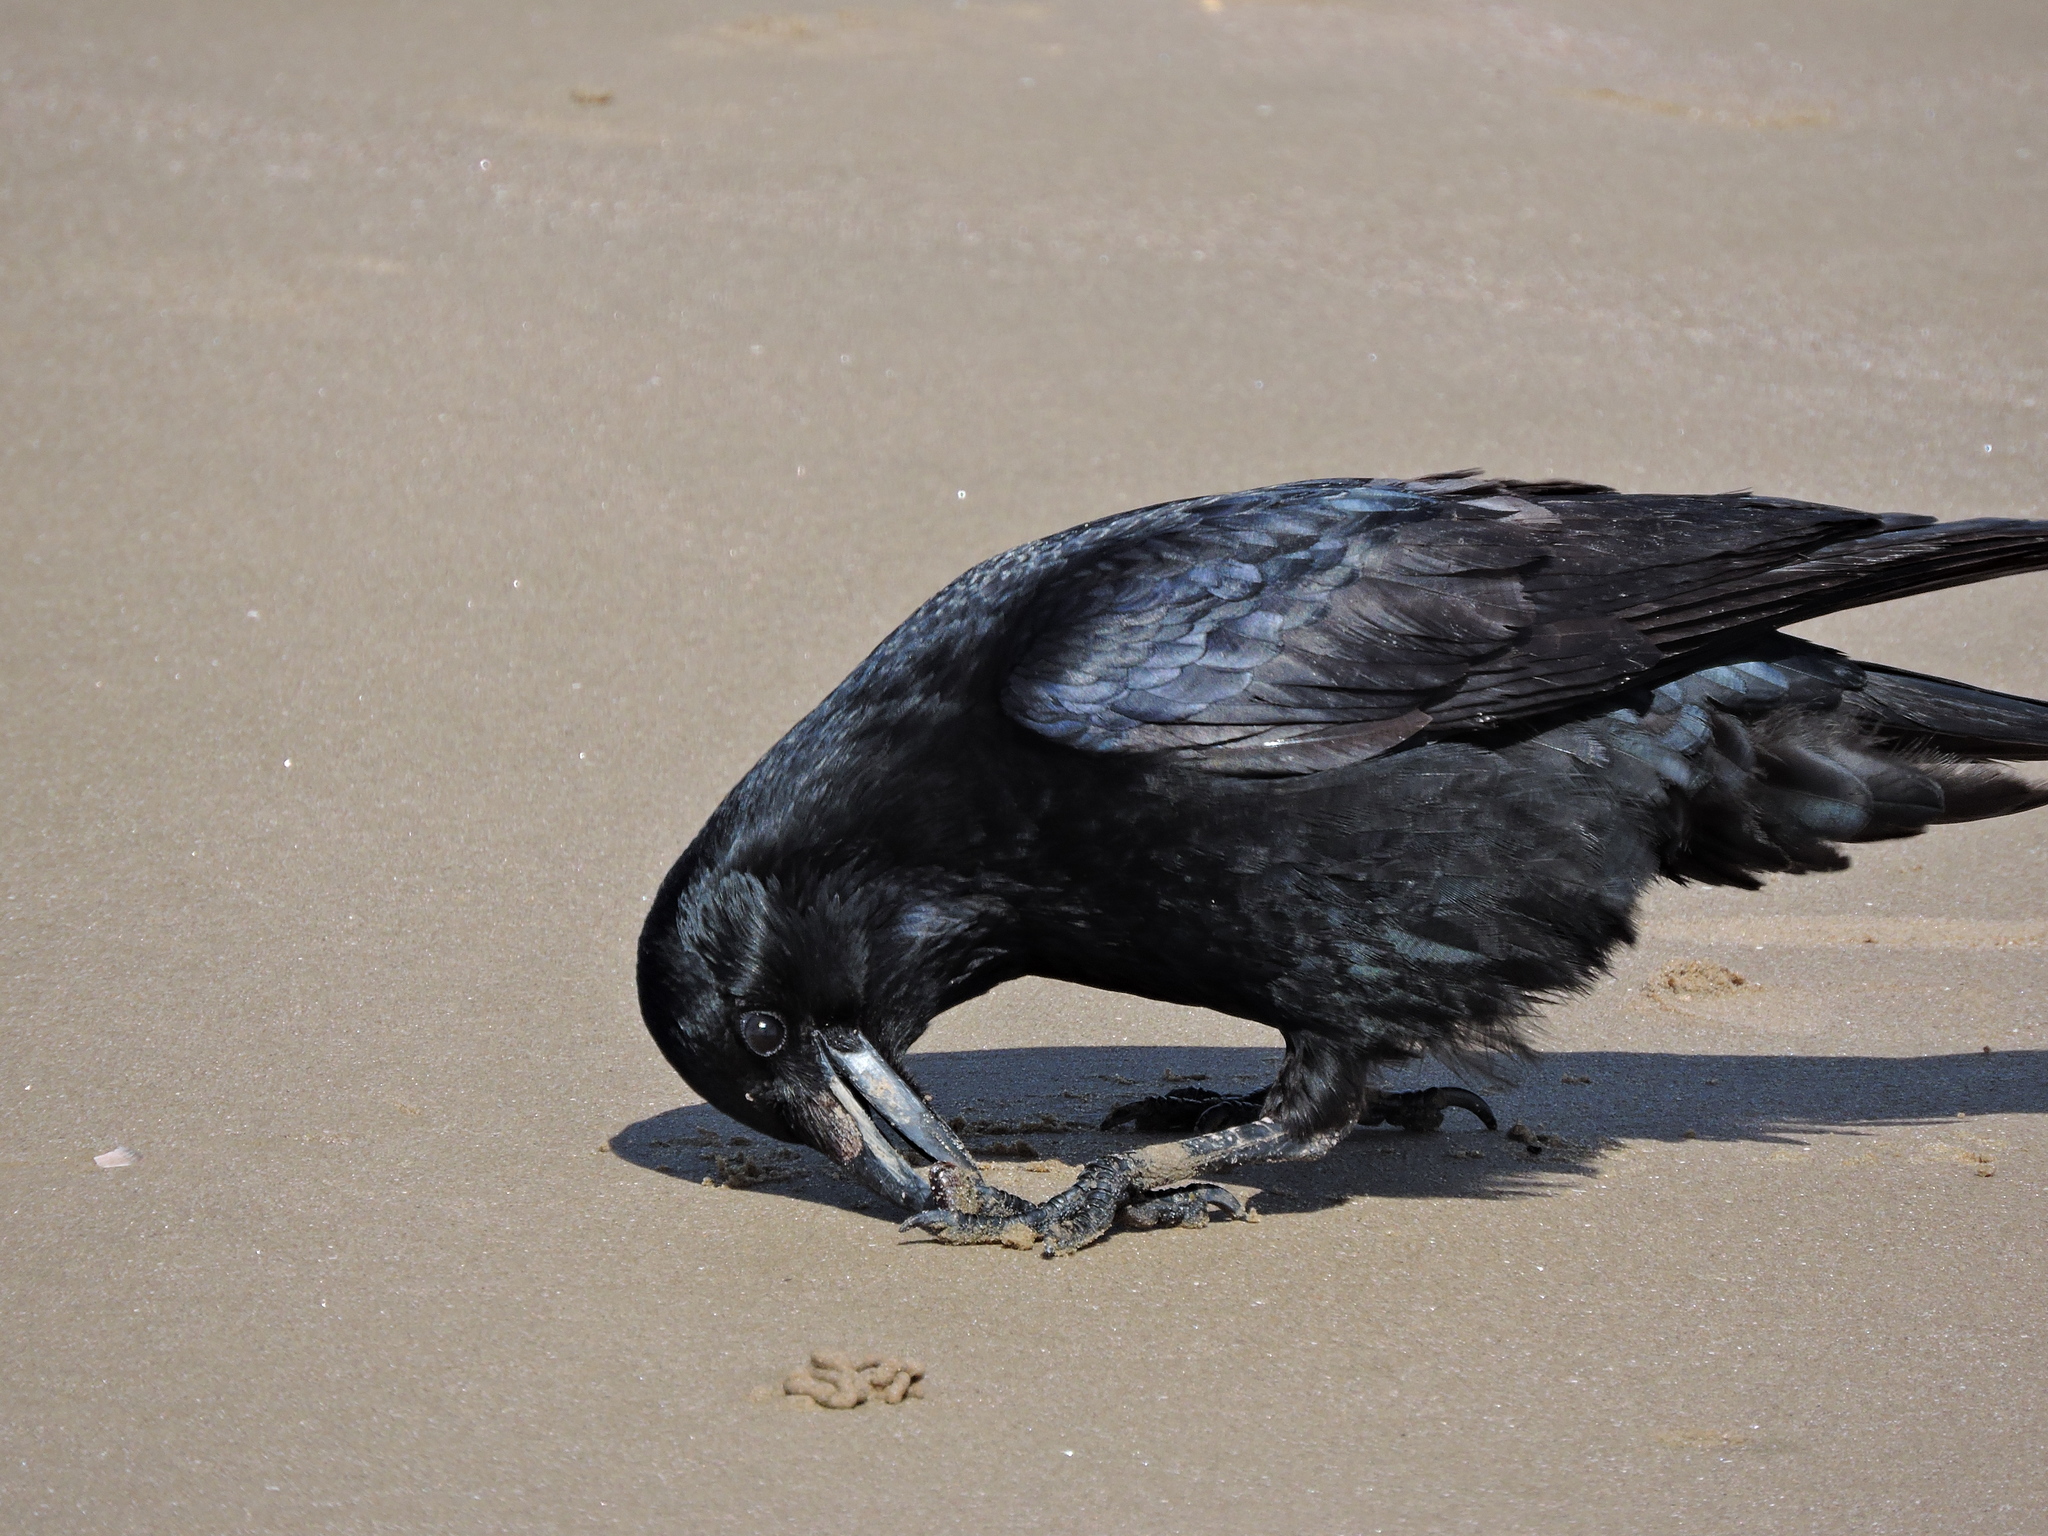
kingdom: Animalia
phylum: Chordata
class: Aves
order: Passeriformes
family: Corvidae
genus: Corvus
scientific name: Corvus corone
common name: Carrion crow
